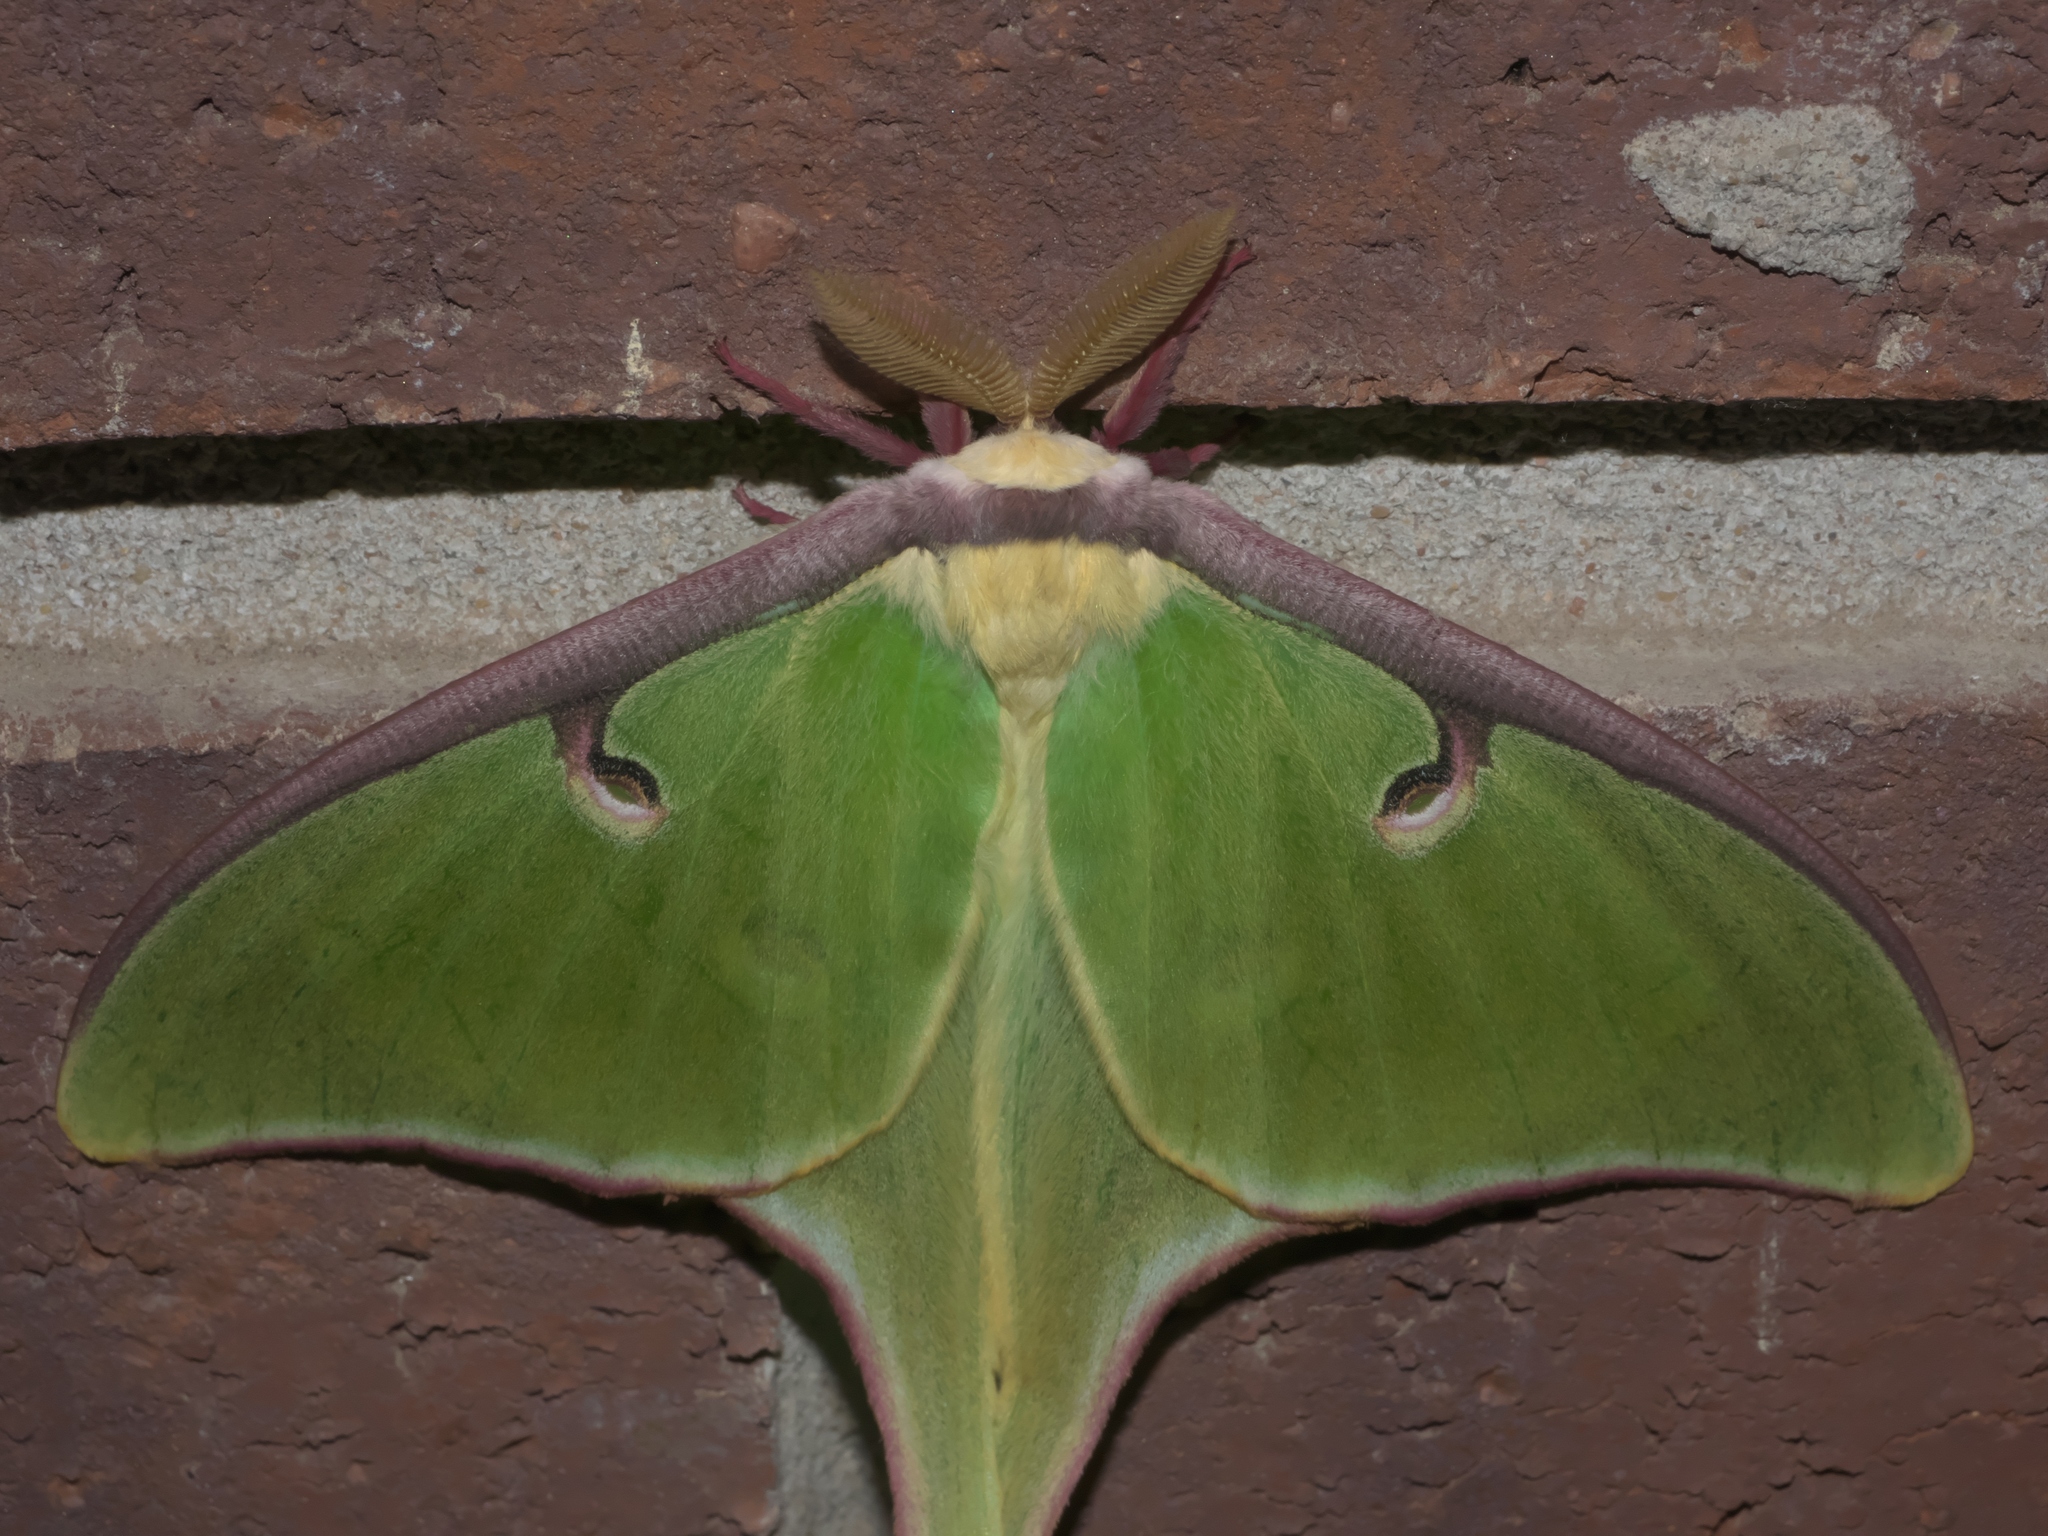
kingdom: Animalia
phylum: Arthropoda
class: Insecta
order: Lepidoptera
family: Saturniidae
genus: Actias
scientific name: Actias luna
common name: Luna moth
